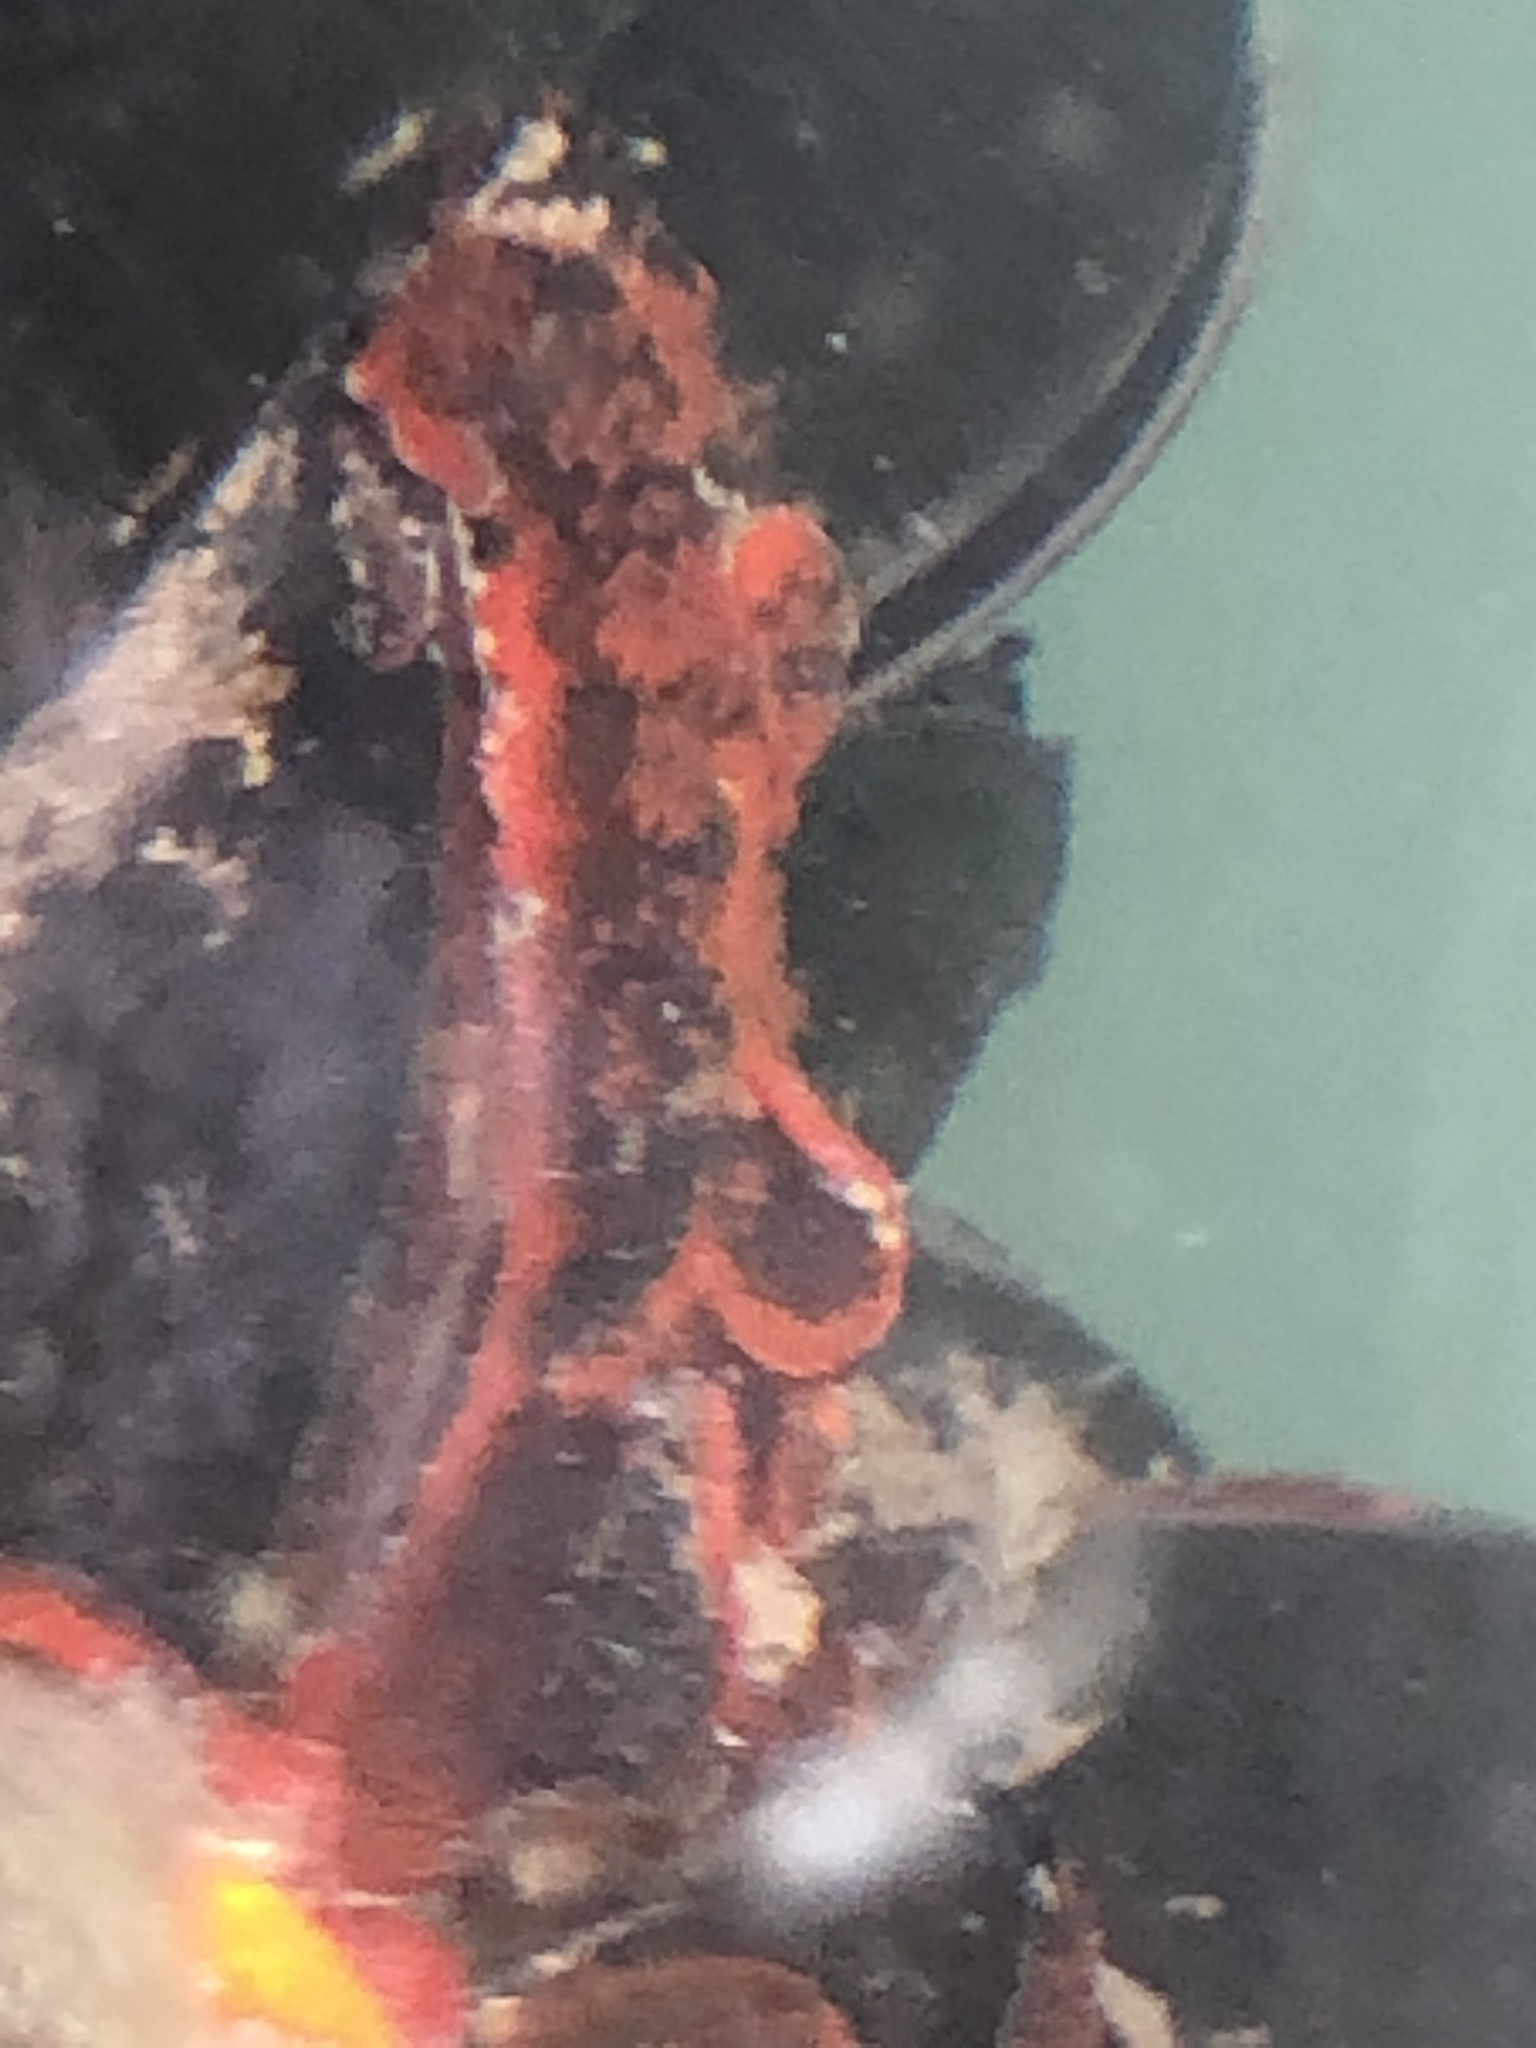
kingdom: Animalia
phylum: Mollusca
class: Bivalvia
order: Mytilida
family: Mytilidae
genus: Mytilus
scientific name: Mytilus
